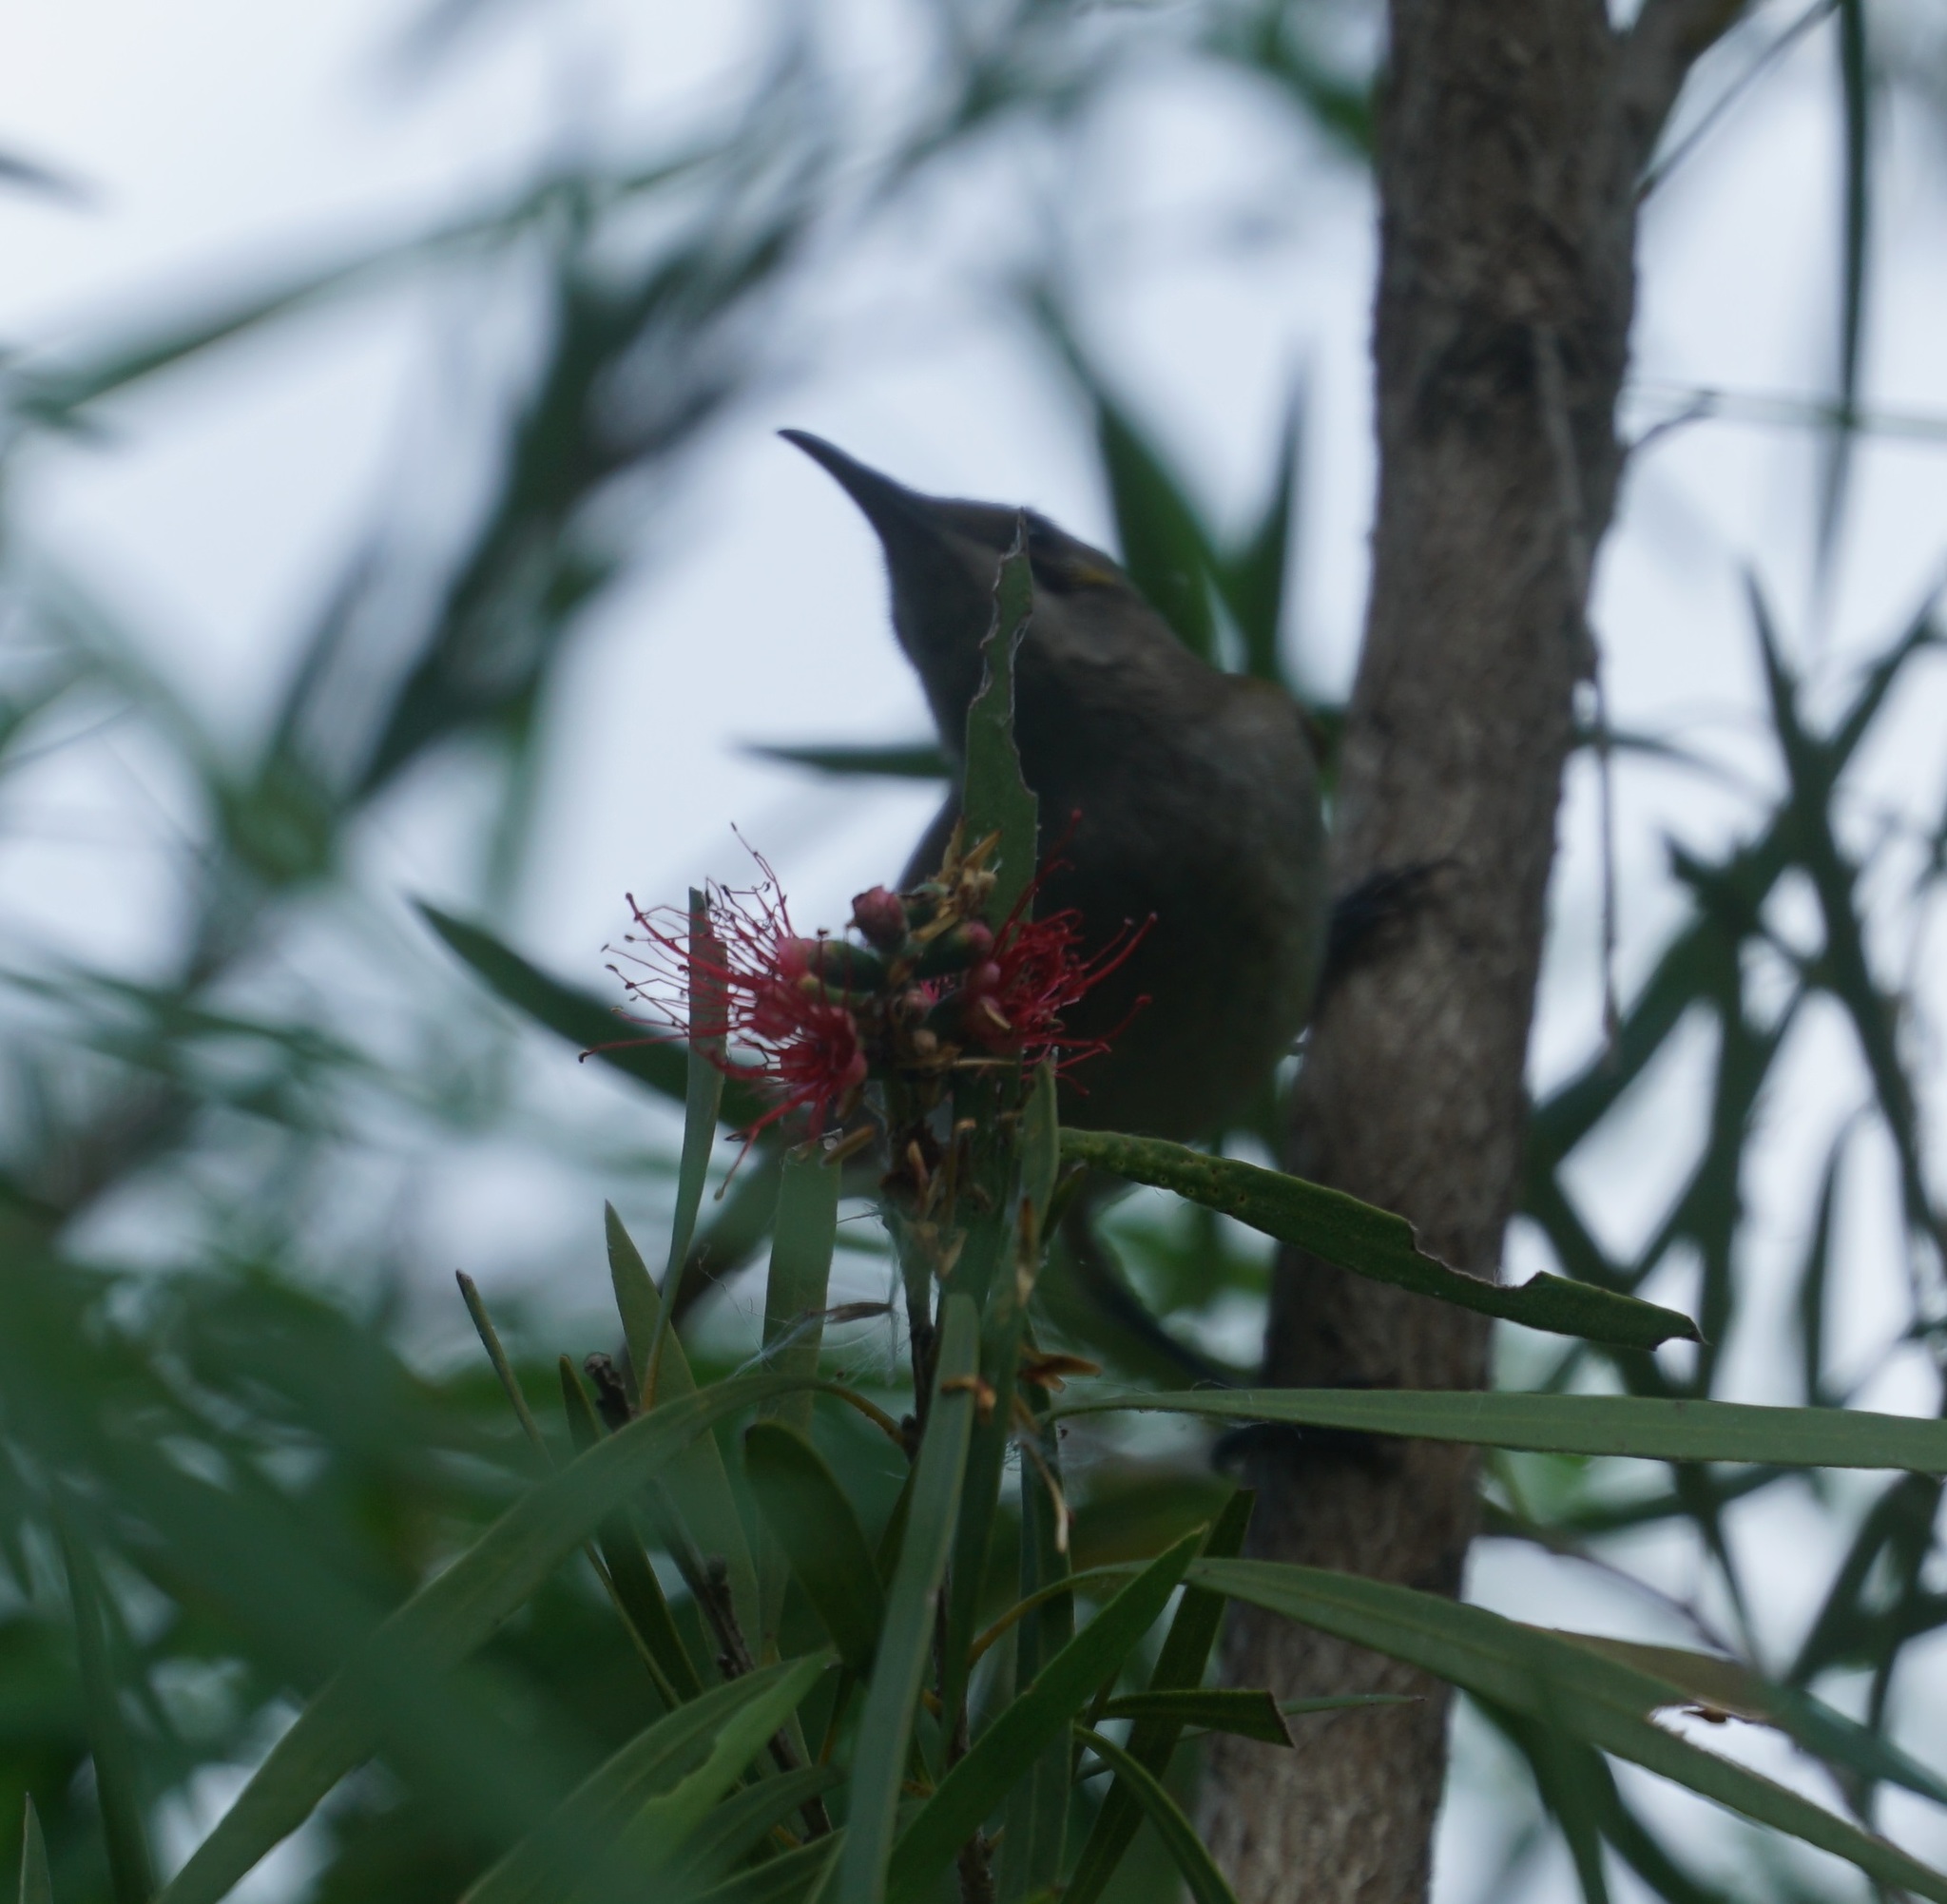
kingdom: Animalia
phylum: Chordata
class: Aves
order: Passeriformes
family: Meliphagidae
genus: Lichmera
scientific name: Lichmera indistincta
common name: Brown honeyeater
